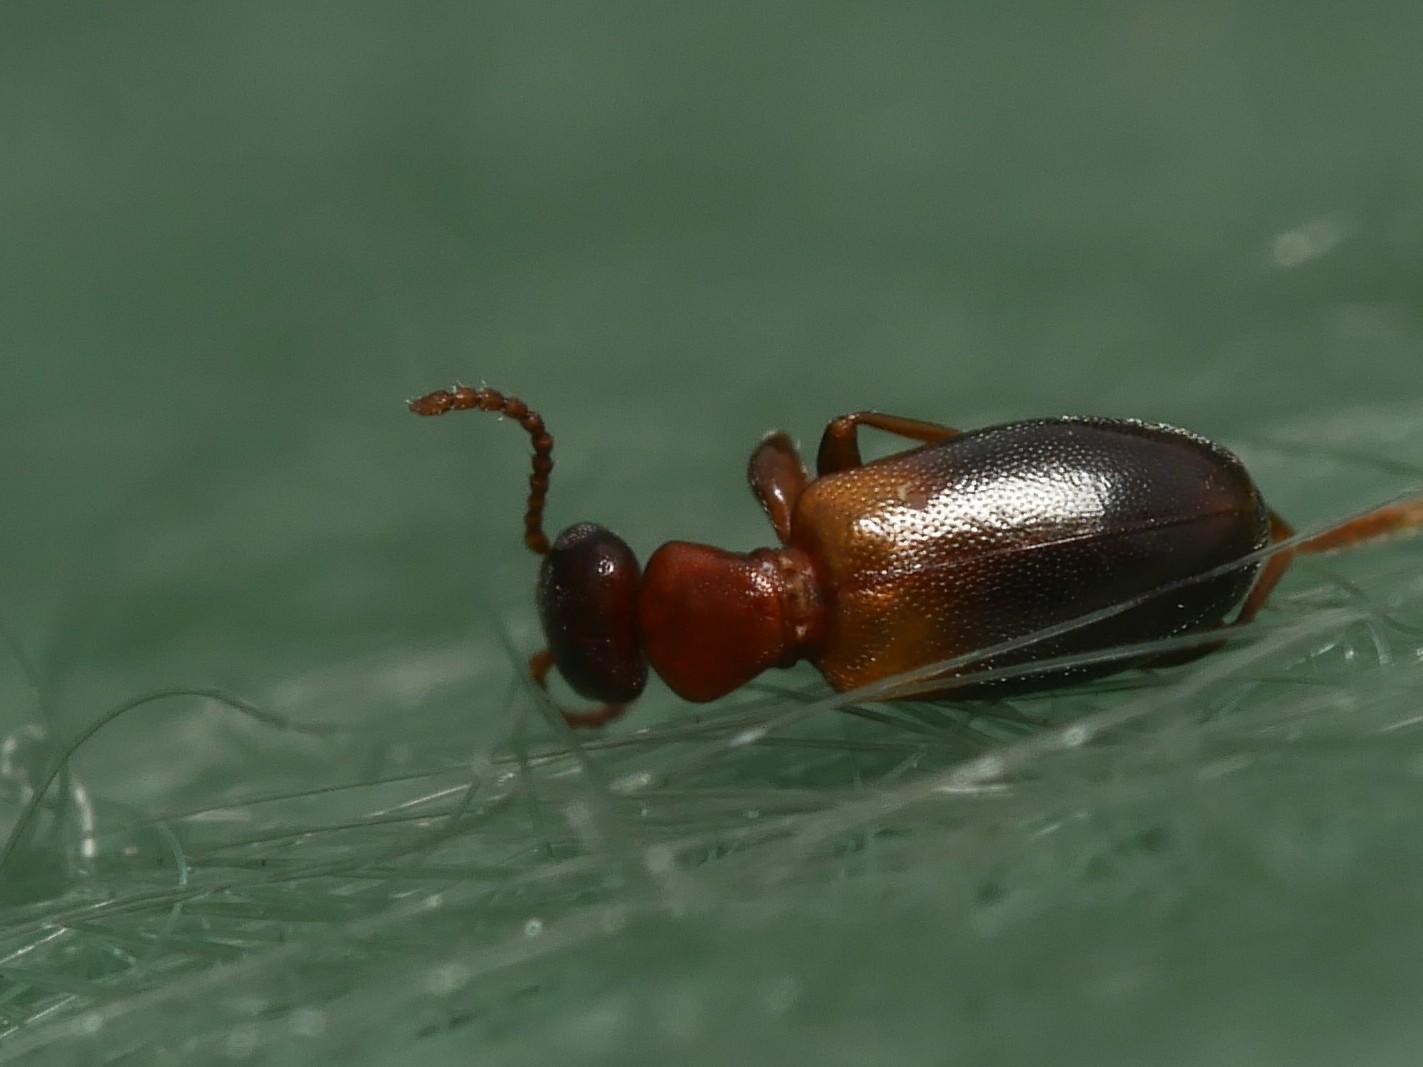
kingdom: Animalia
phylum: Arthropoda
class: Insecta
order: Coleoptera
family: Anthicidae
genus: Omonadus
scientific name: Omonadus floralis
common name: Narrownecked grain beetle
